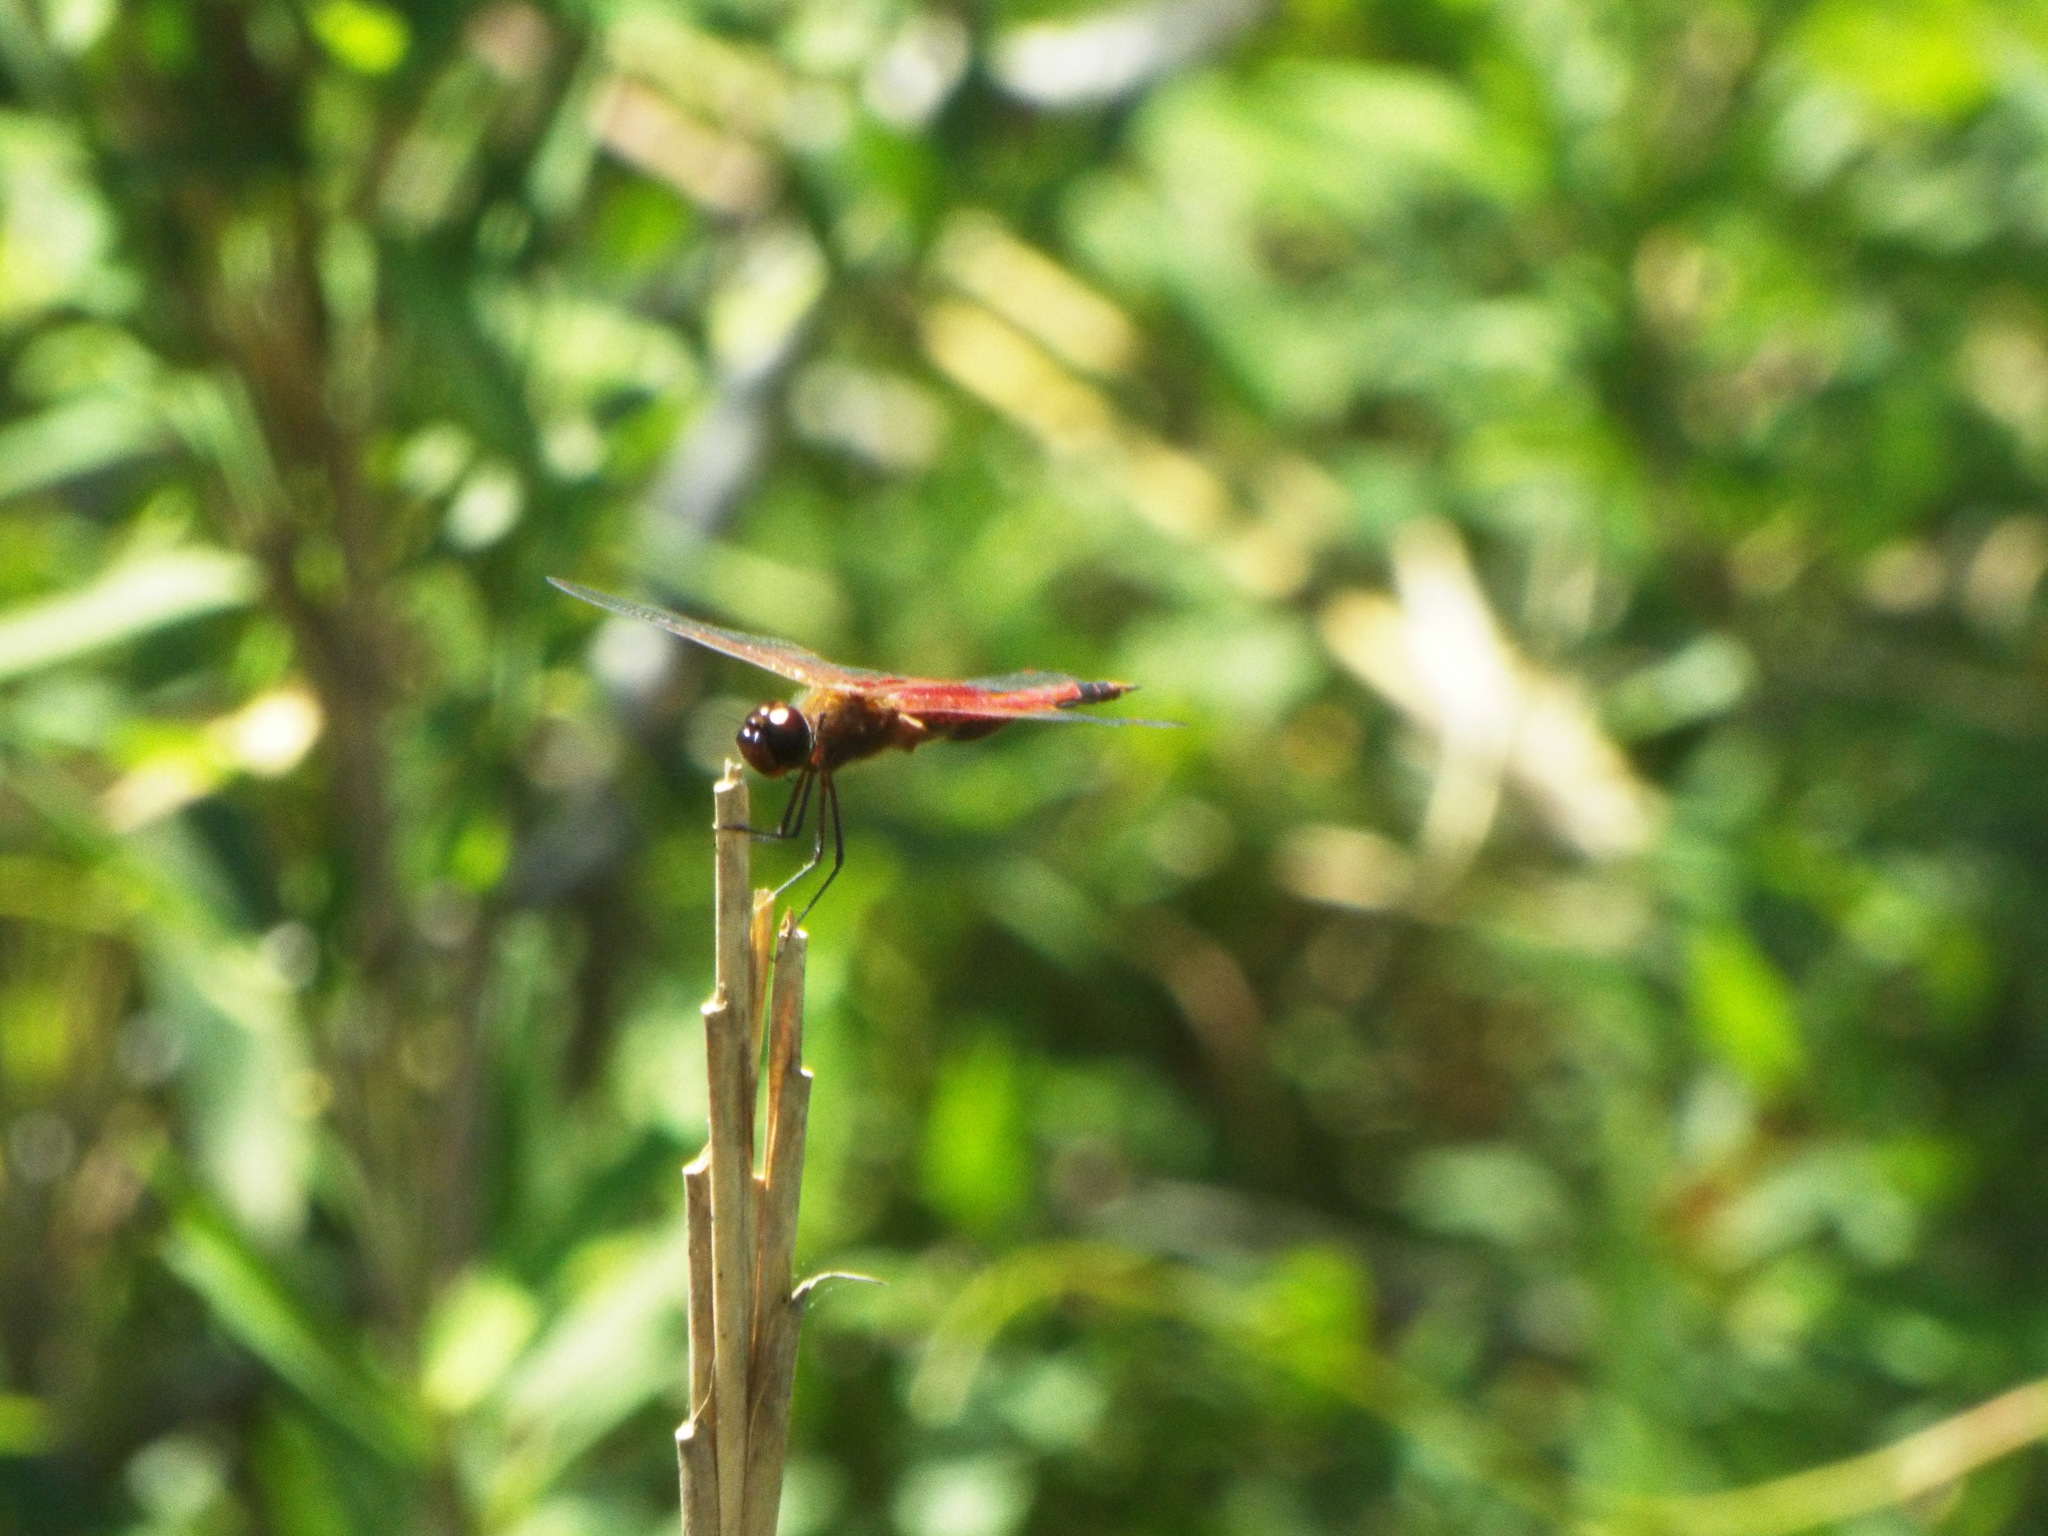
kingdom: Animalia
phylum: Arthropoda
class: Insecta
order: Odonata
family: Libellulidae
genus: Tramea
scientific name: Tramea carolina
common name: Carolina saddlebags
